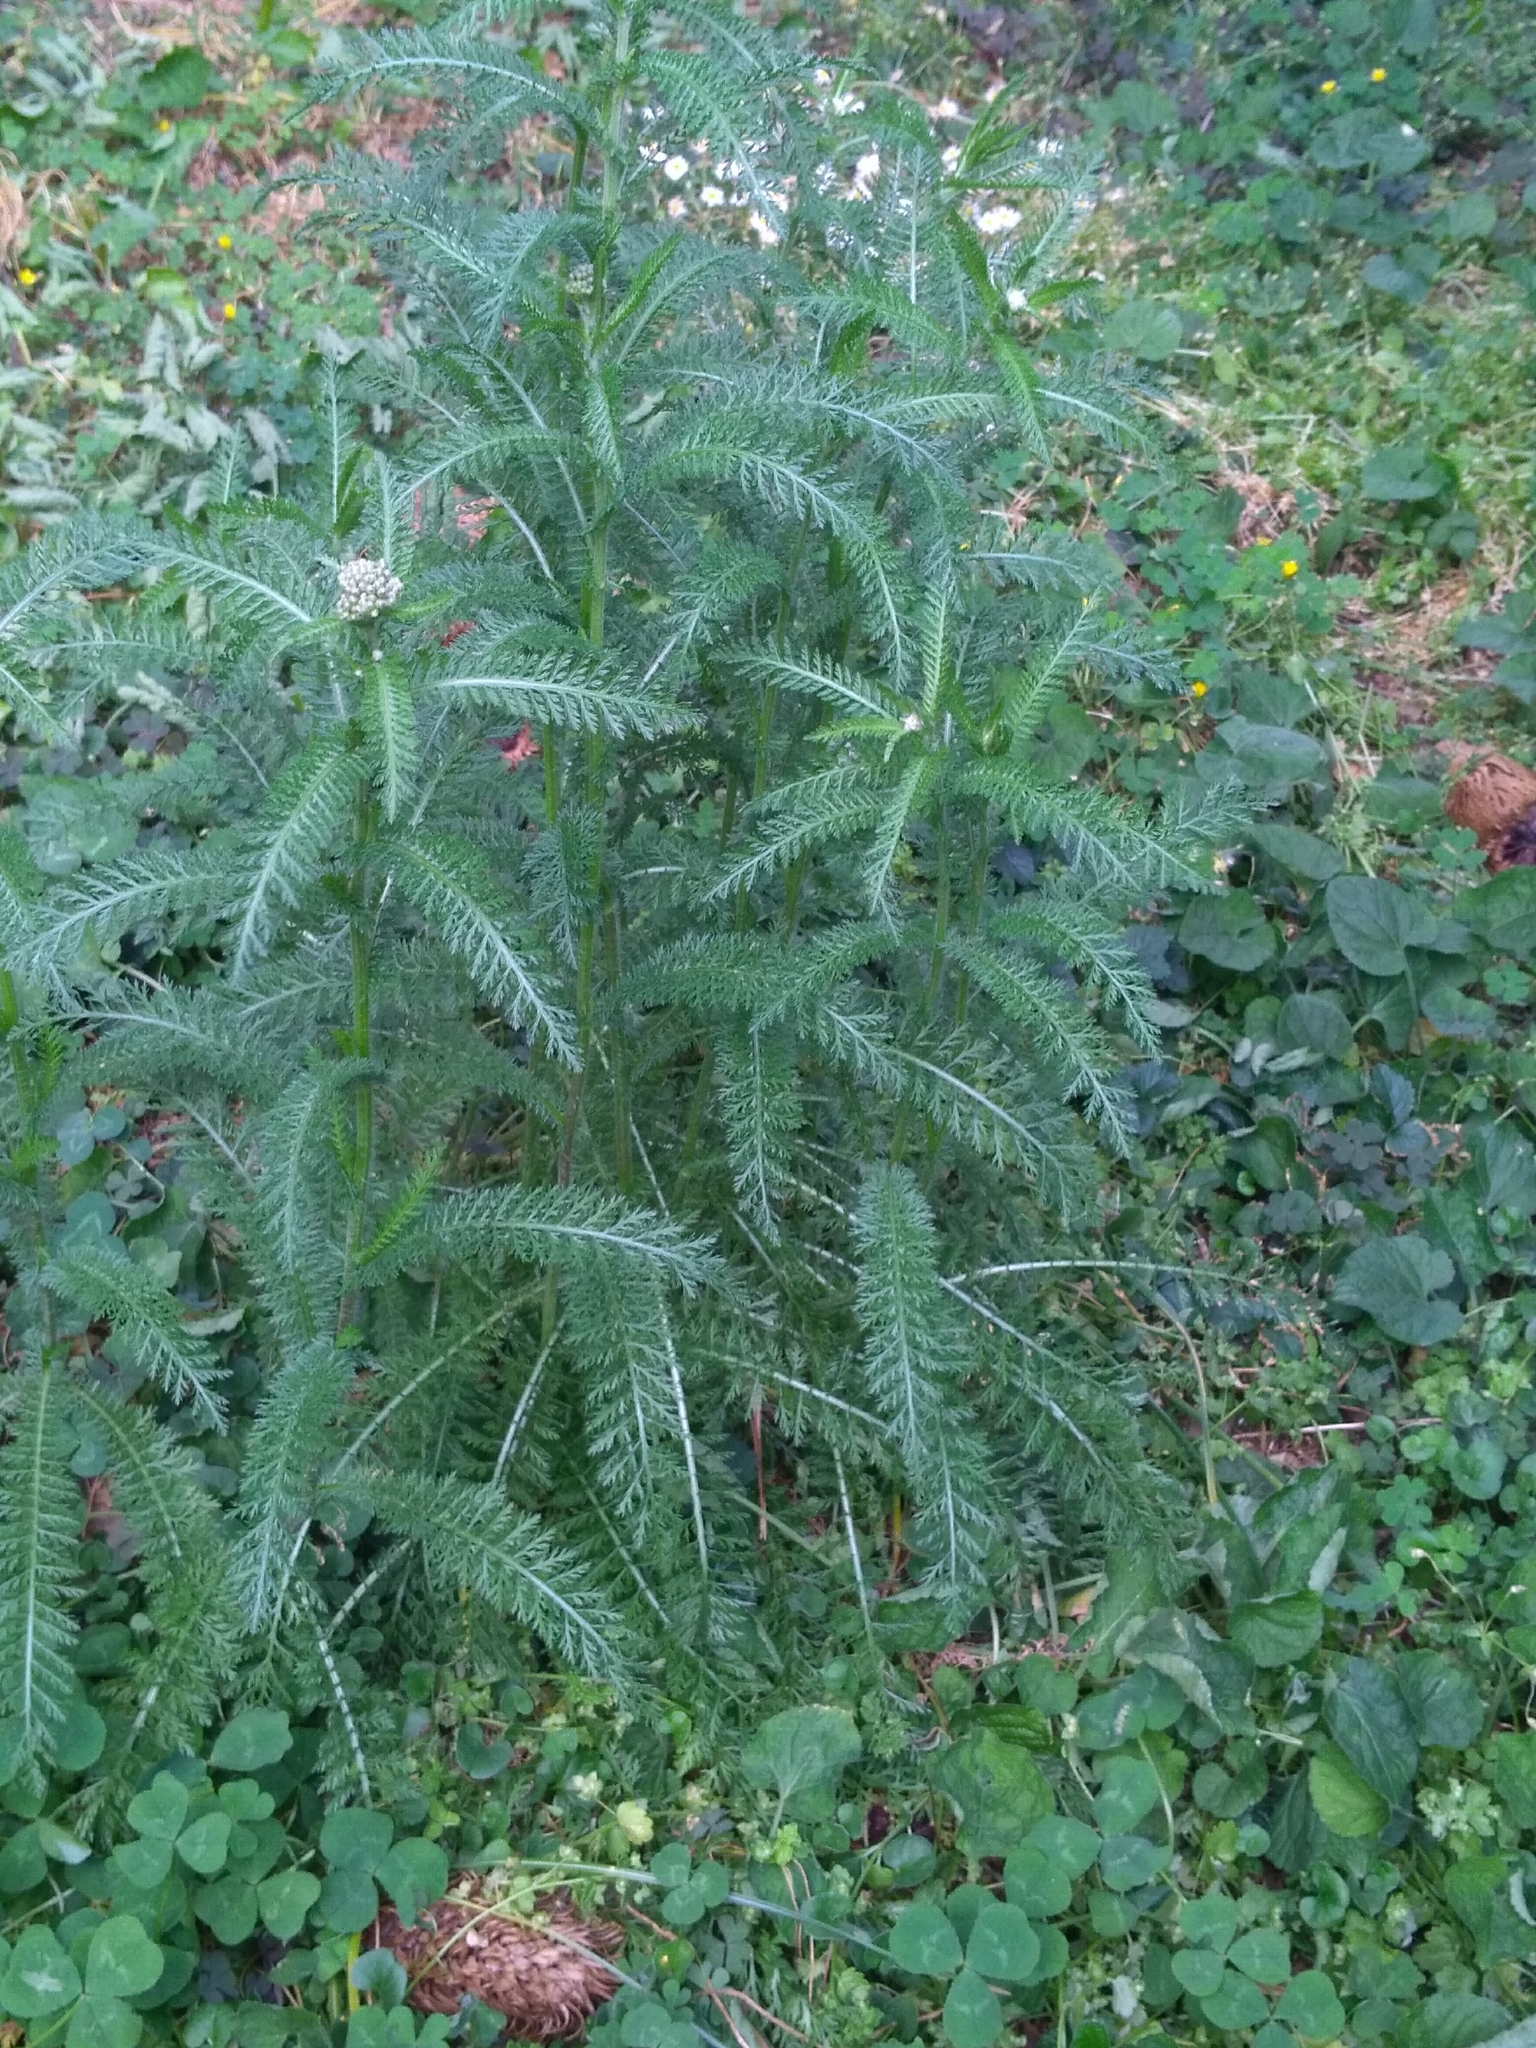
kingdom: Plantae
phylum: Tracheophyta
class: Magnoliopsida
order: Asterales
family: Asteraceae
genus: Achillea
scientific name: Achillea millefolium
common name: Yarrow
